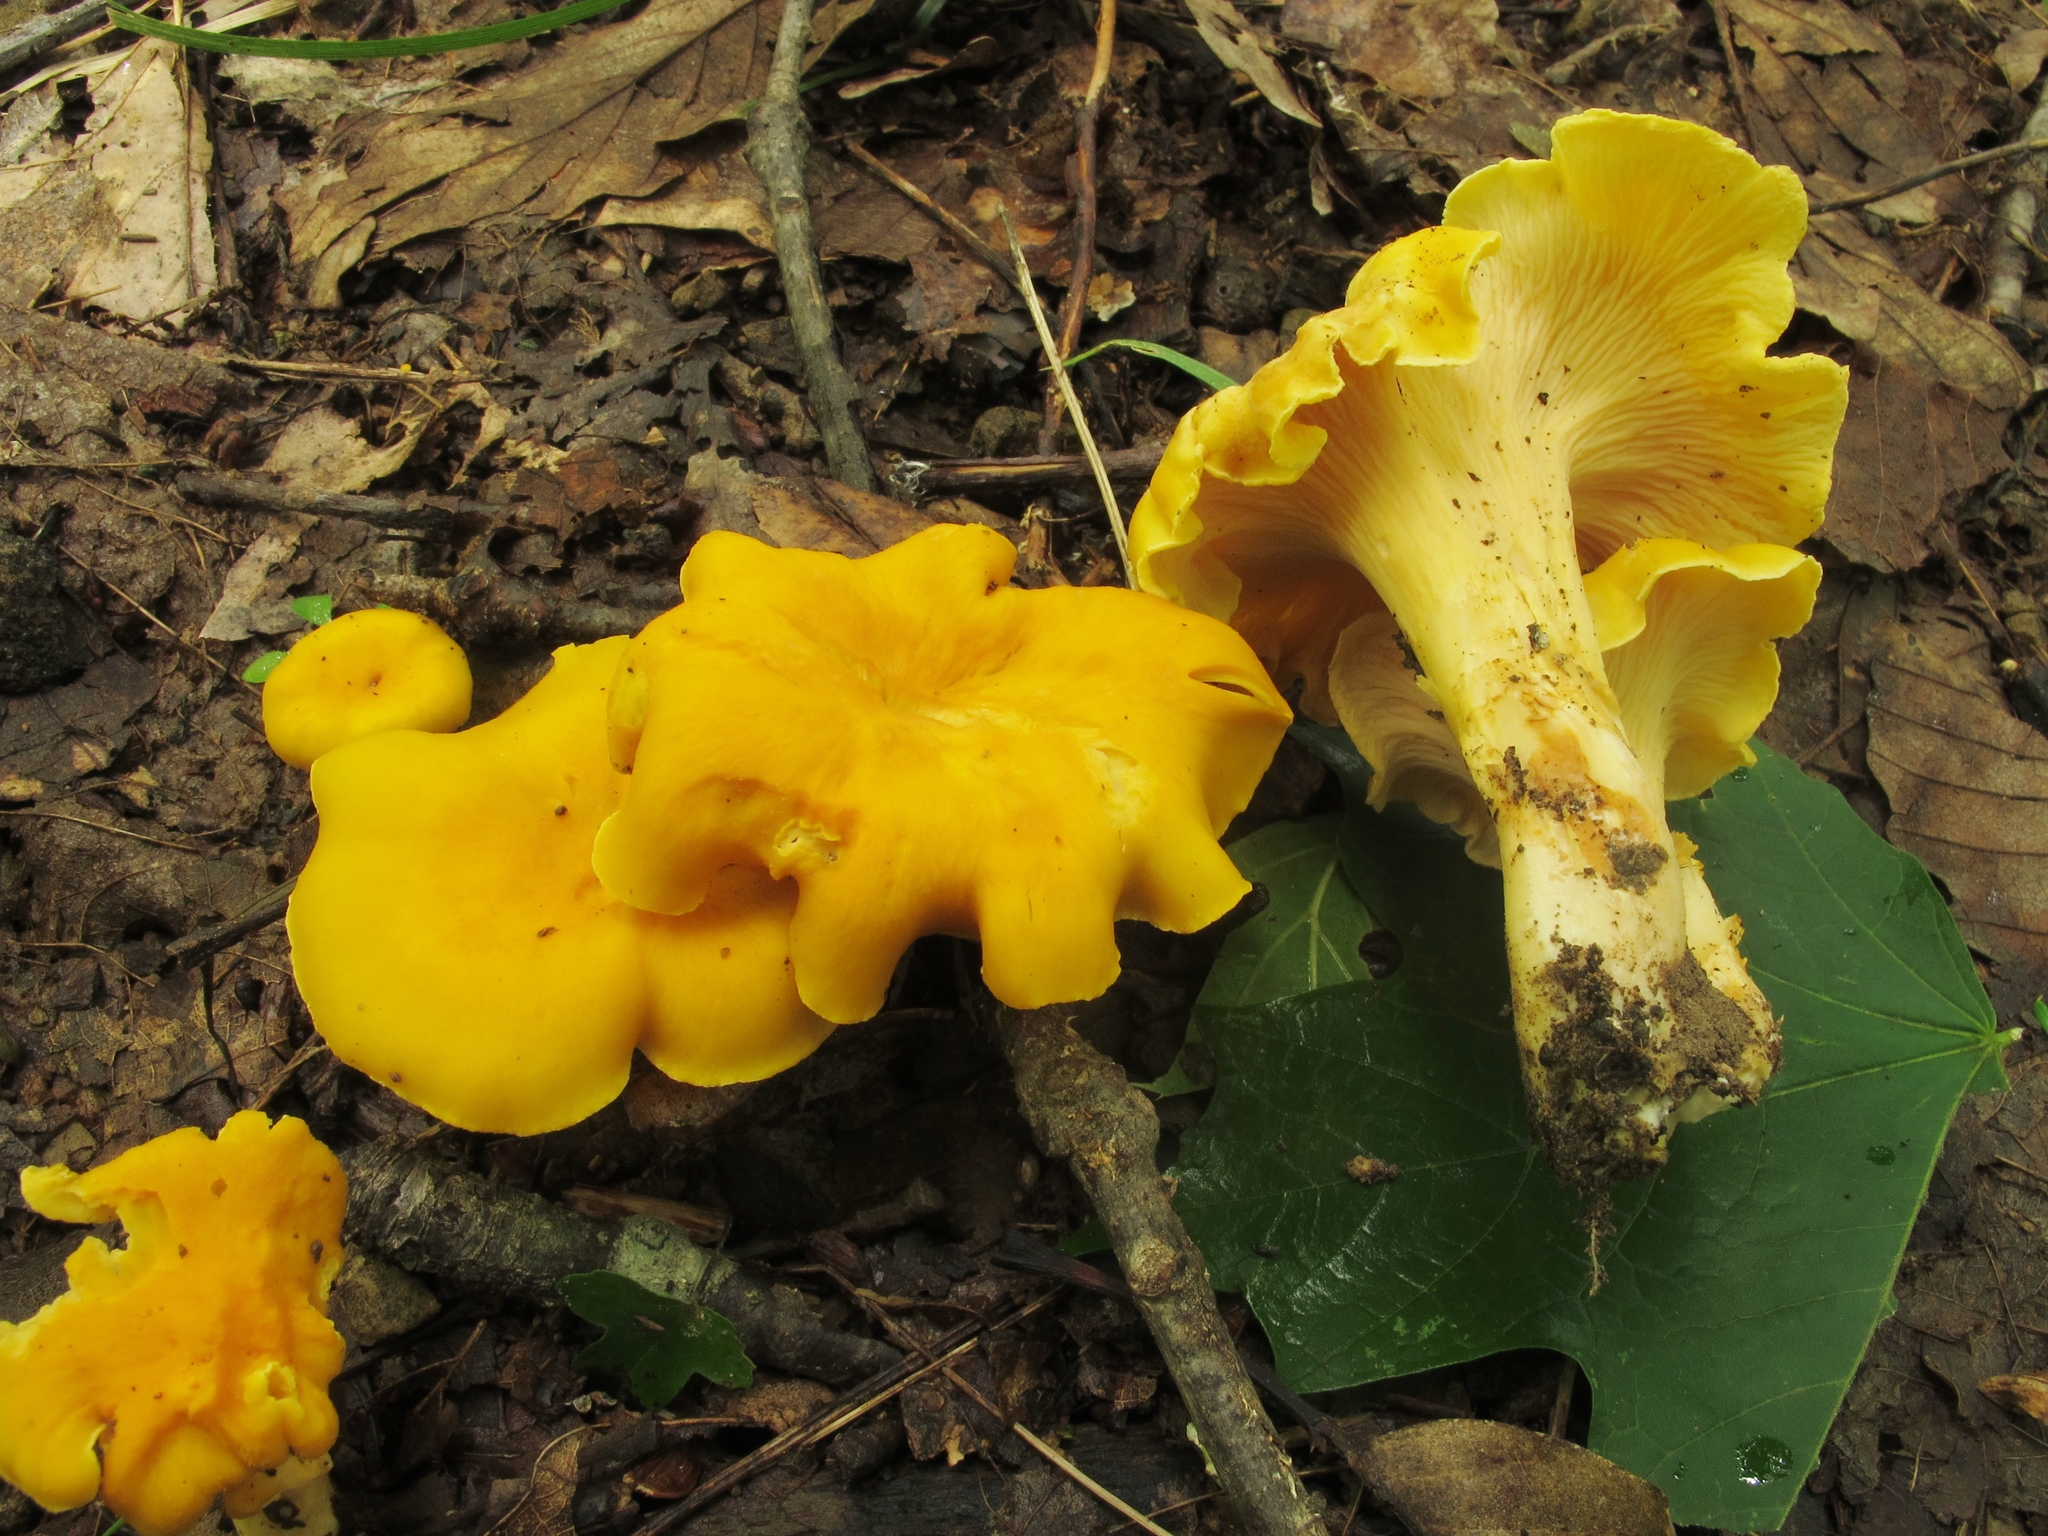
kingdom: Fungi
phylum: Basidiomycota
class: Agaricomycetes
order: Cantharellales
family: Hydnaceae
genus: Cantharellus
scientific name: Cantharellus lateritius
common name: Smooth chanterelle
